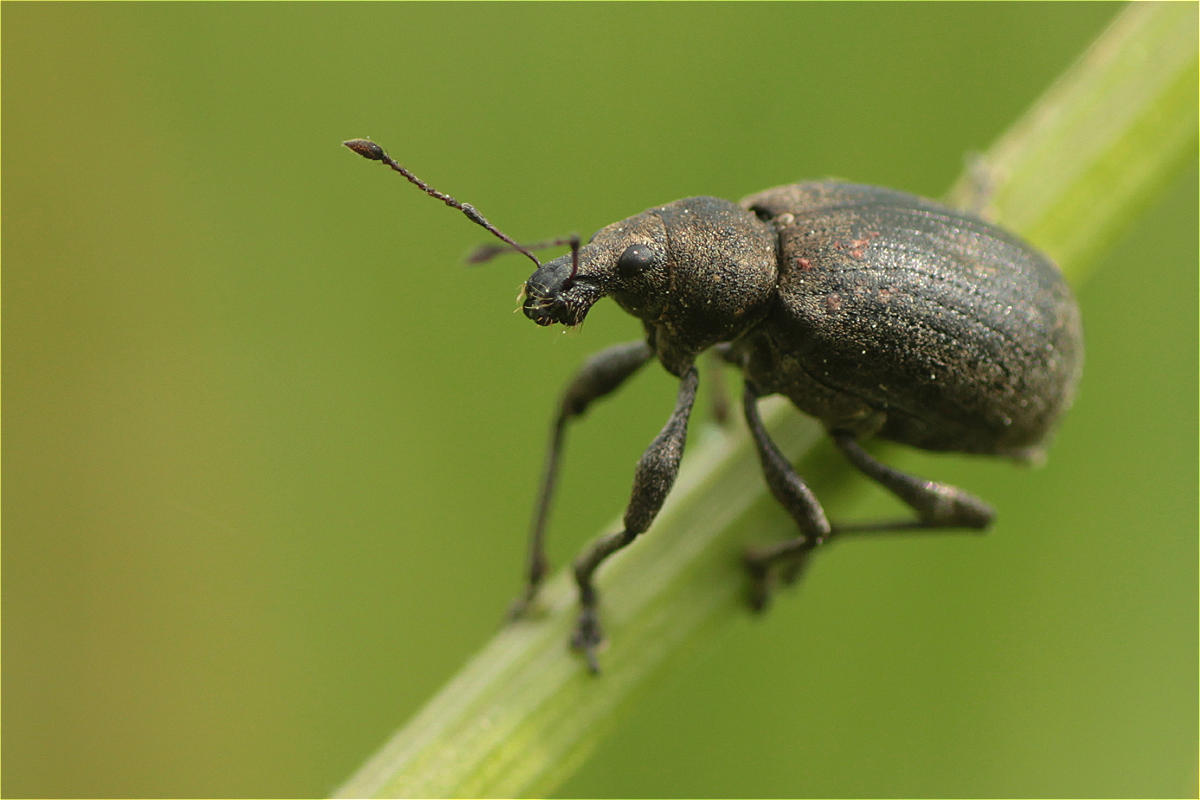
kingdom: Animalia
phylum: Arthropoda
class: Insecta
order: Coleoptera
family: Curculionidae
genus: Liophloeus
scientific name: Liophloeus tessulatus
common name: Weevil
